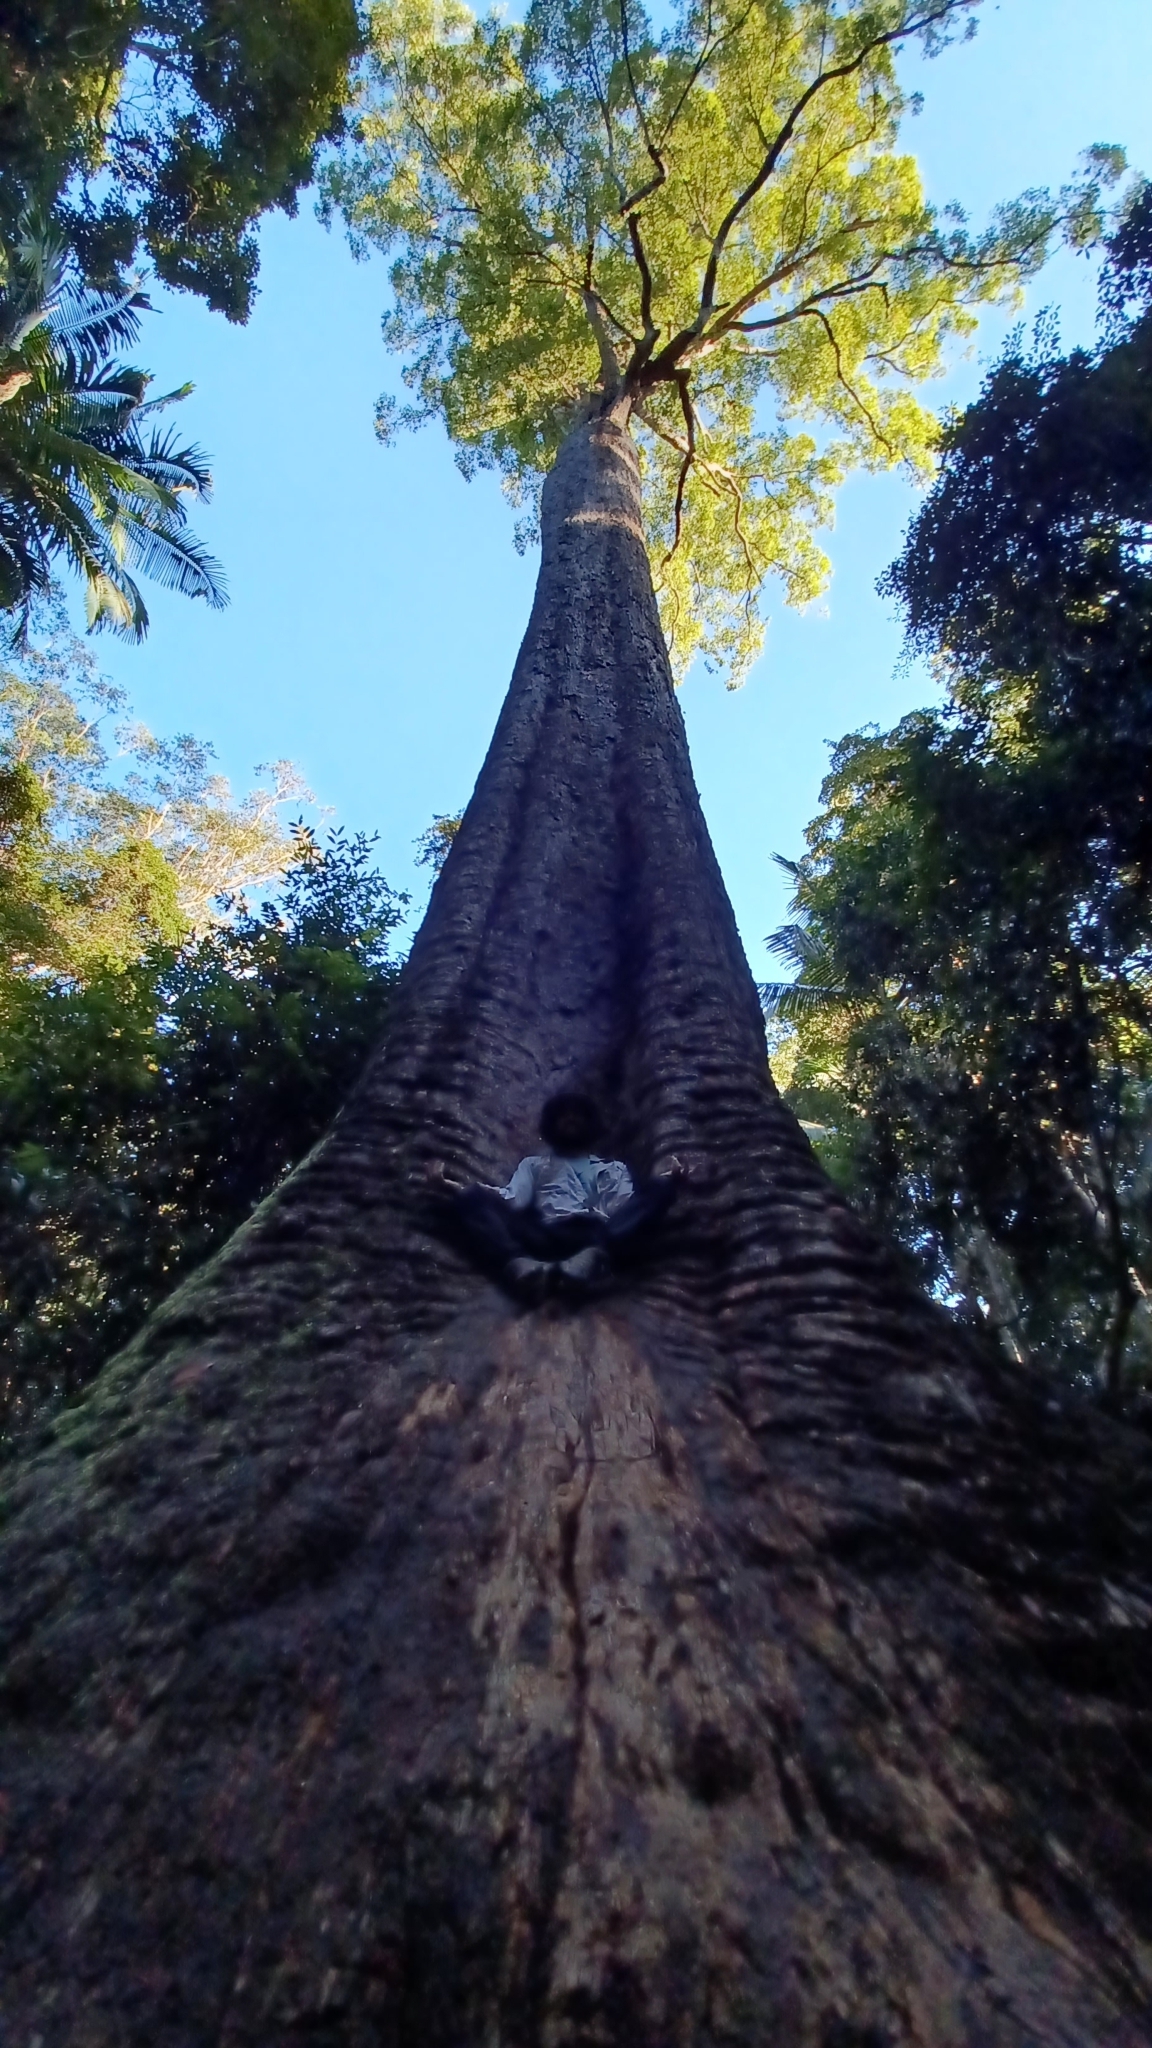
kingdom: Plantae
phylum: Tracheophyta
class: Magnoliopsida
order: Myrtales
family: Myrtaceae
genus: Corymbia
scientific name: Corymbia gummifera
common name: Red bloodwood
